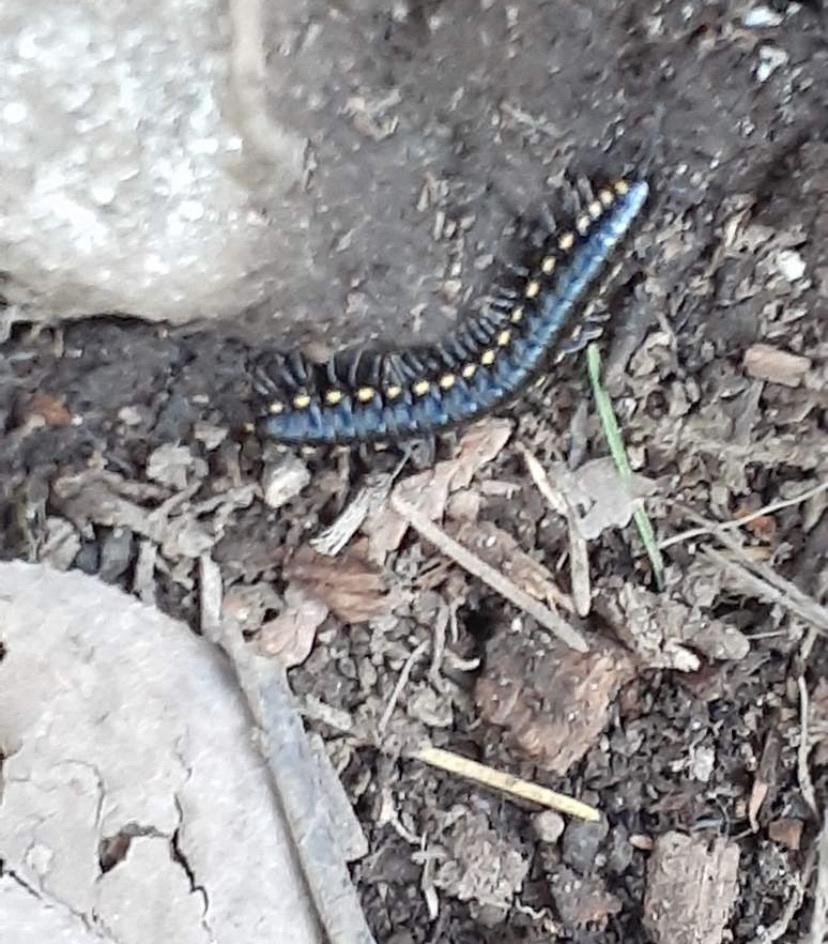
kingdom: Animalia
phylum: Arthropoda
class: Diplopoda
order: Polydesmida
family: Xystodesmidae
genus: Harpaphe
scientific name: Harpaphe haydeniana
